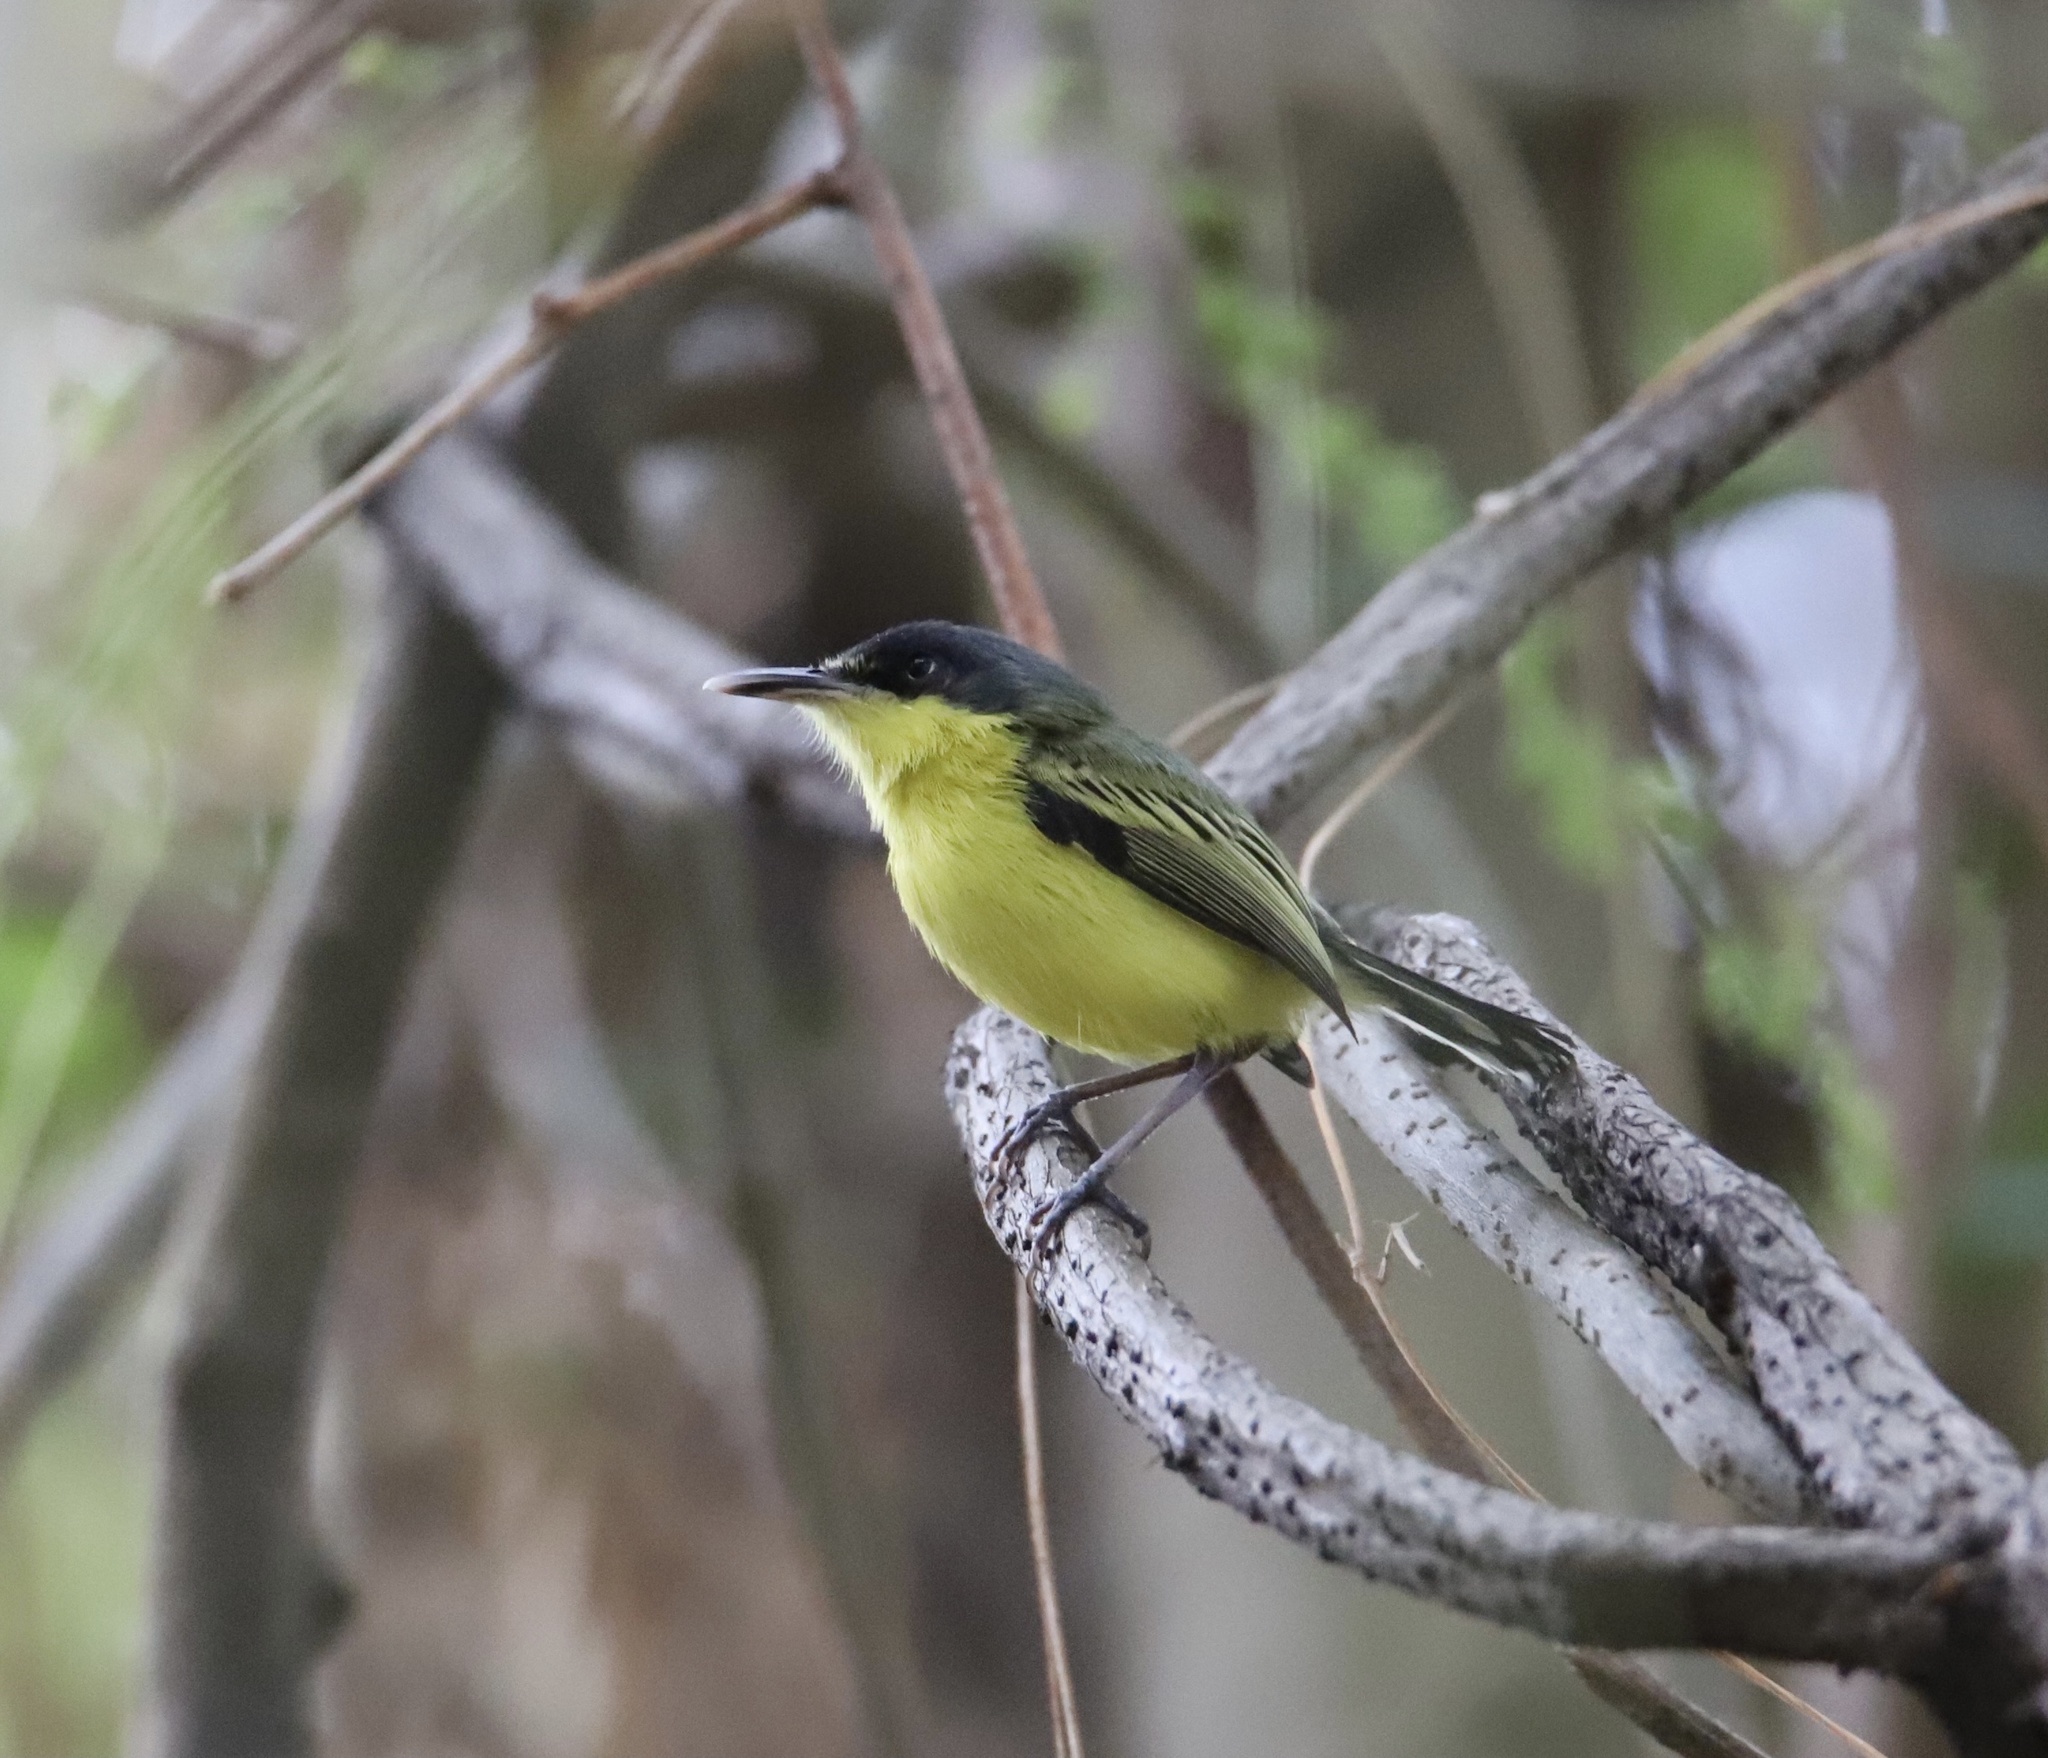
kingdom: Animalia
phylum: Chordata
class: Aves
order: Passeriformes
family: Tyrannidae
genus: Todirostrum
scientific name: Todirostrum cinereum
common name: Common tody-flycatcher
